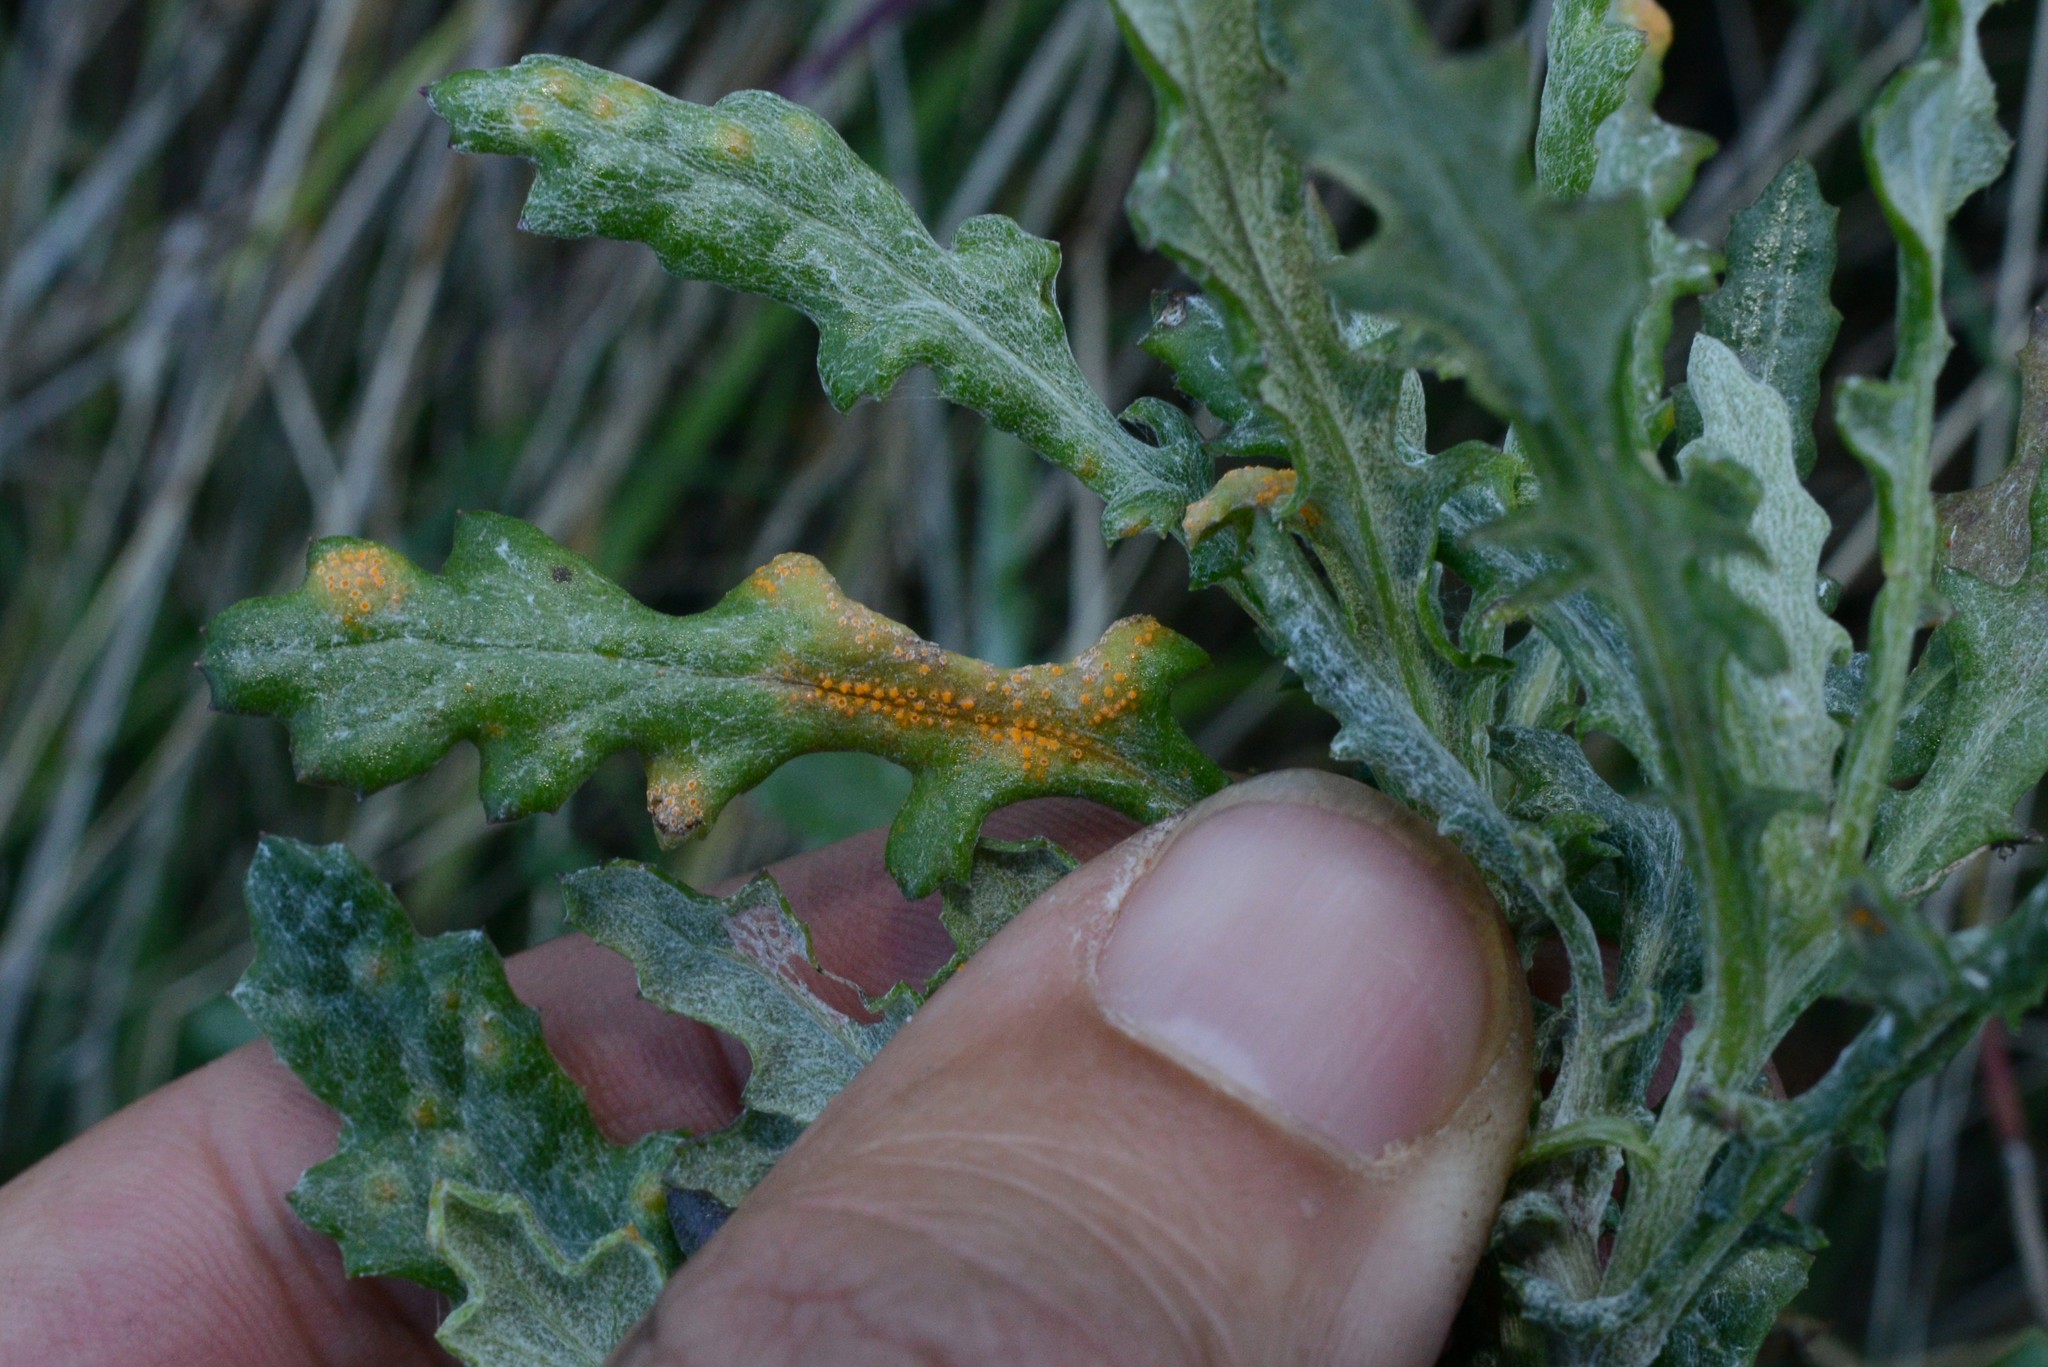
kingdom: Fungi
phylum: Basidiomycota
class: Pucciniomycetes
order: Pucciniales
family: Pucciniaceae
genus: Puccinia
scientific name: Puccinia lagenophorae
